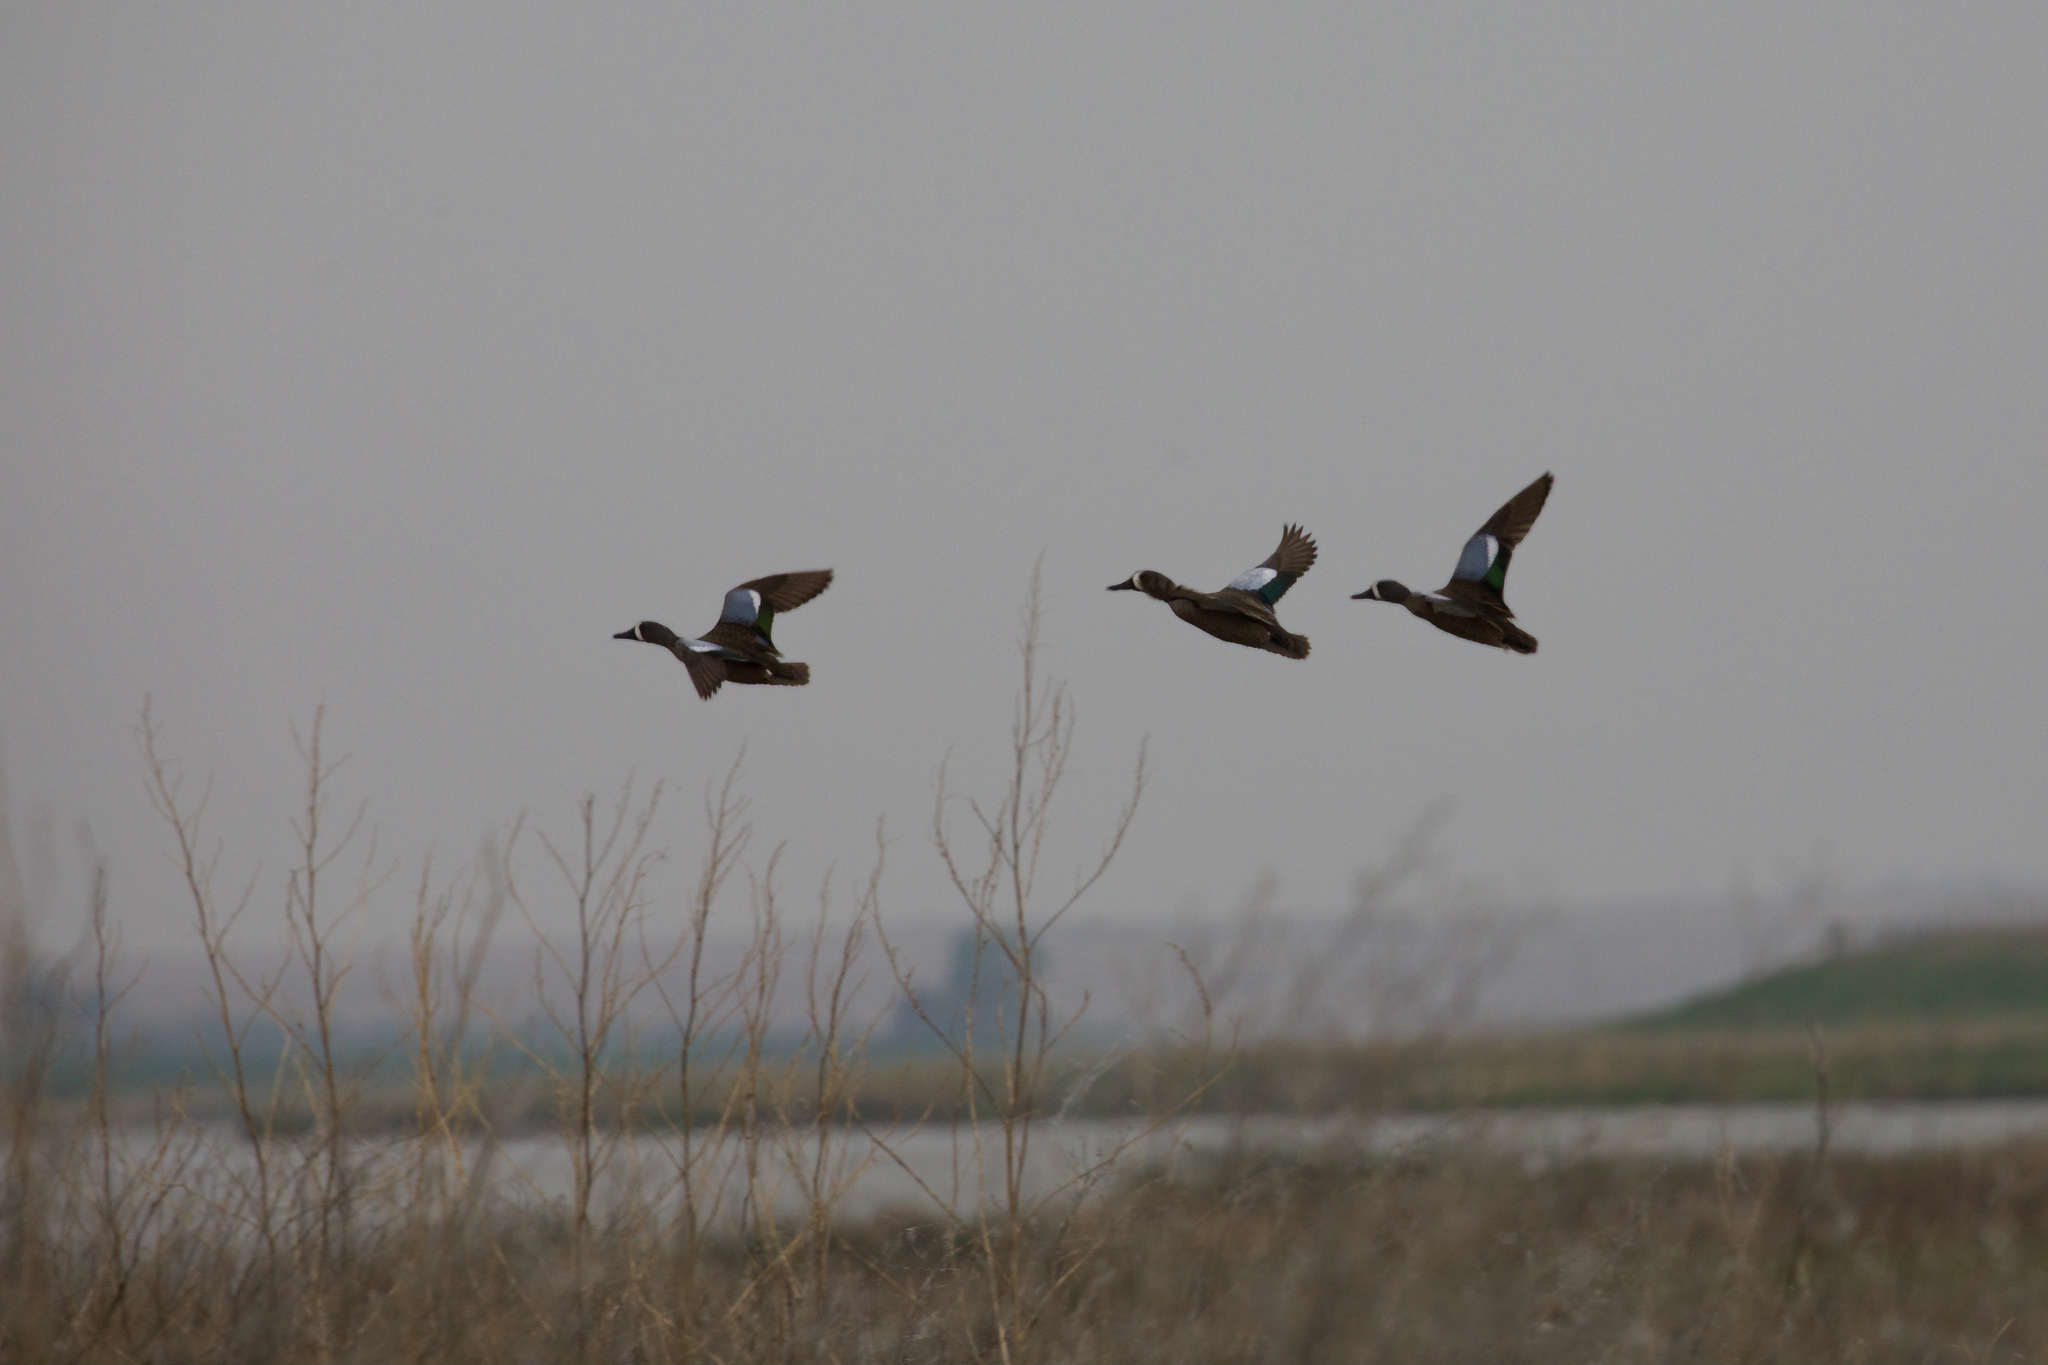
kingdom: Animalia
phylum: Chordata
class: Aves
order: Anseriformes
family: Anatidae
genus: Spatula
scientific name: Spatula discors
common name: Blue-winged teal
